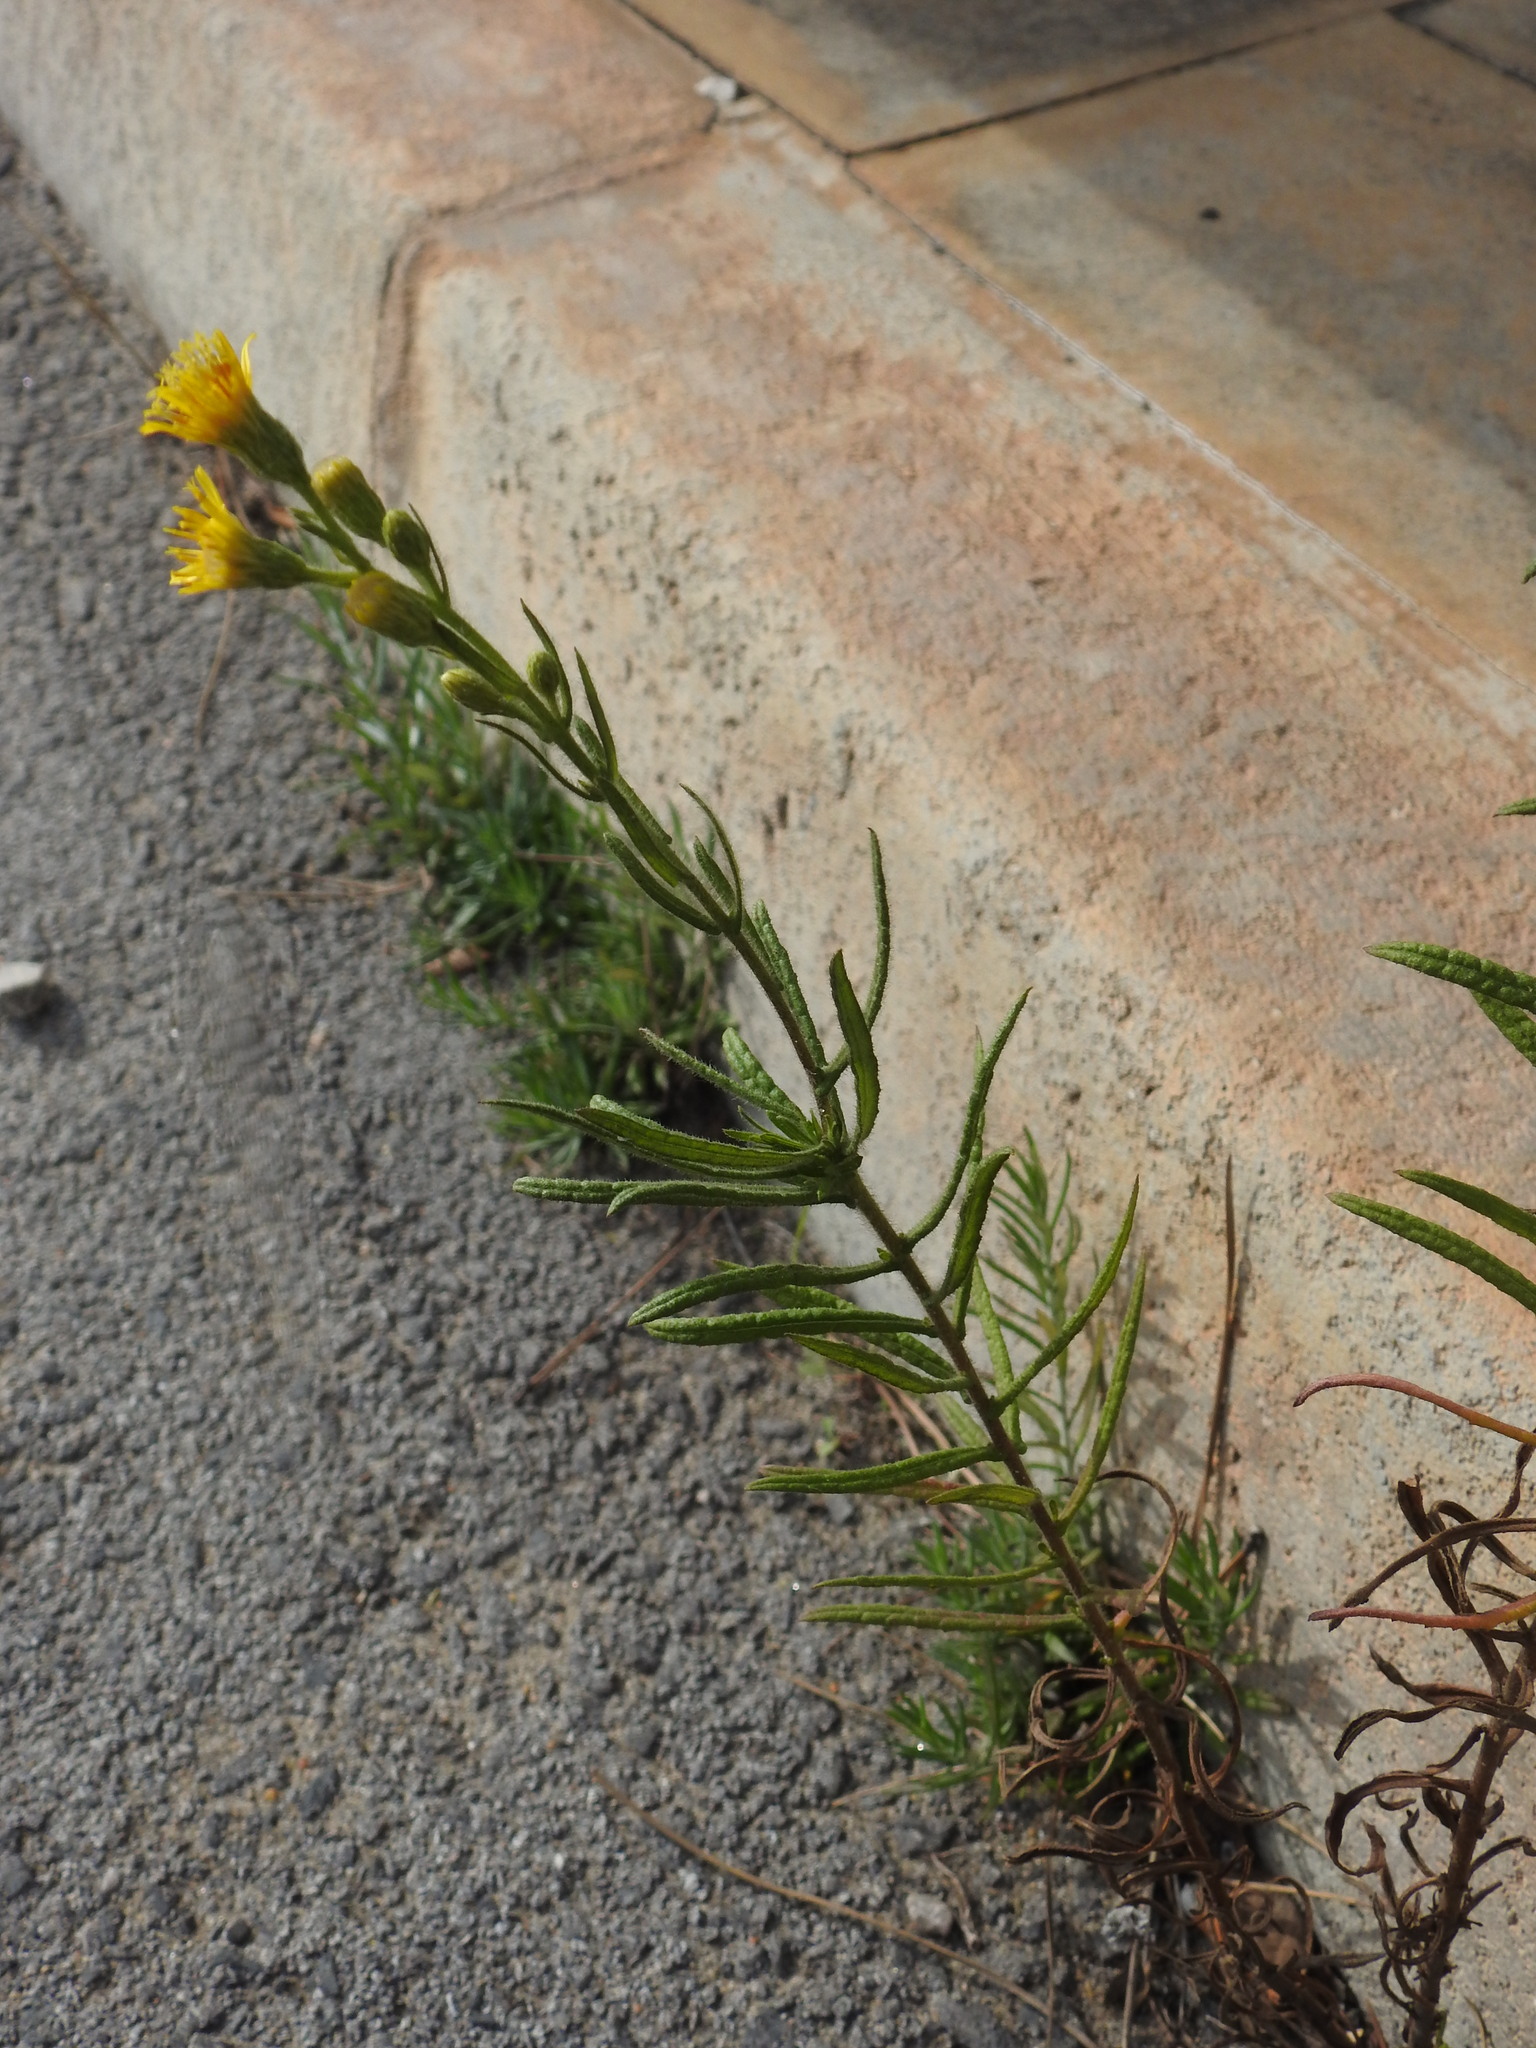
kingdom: Plantae
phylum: Tracheophyta
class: Magnoliopsida
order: Asterales
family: Asteraceae
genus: Dittrichia
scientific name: Dittrichia viscosa
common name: Woody fleabane
